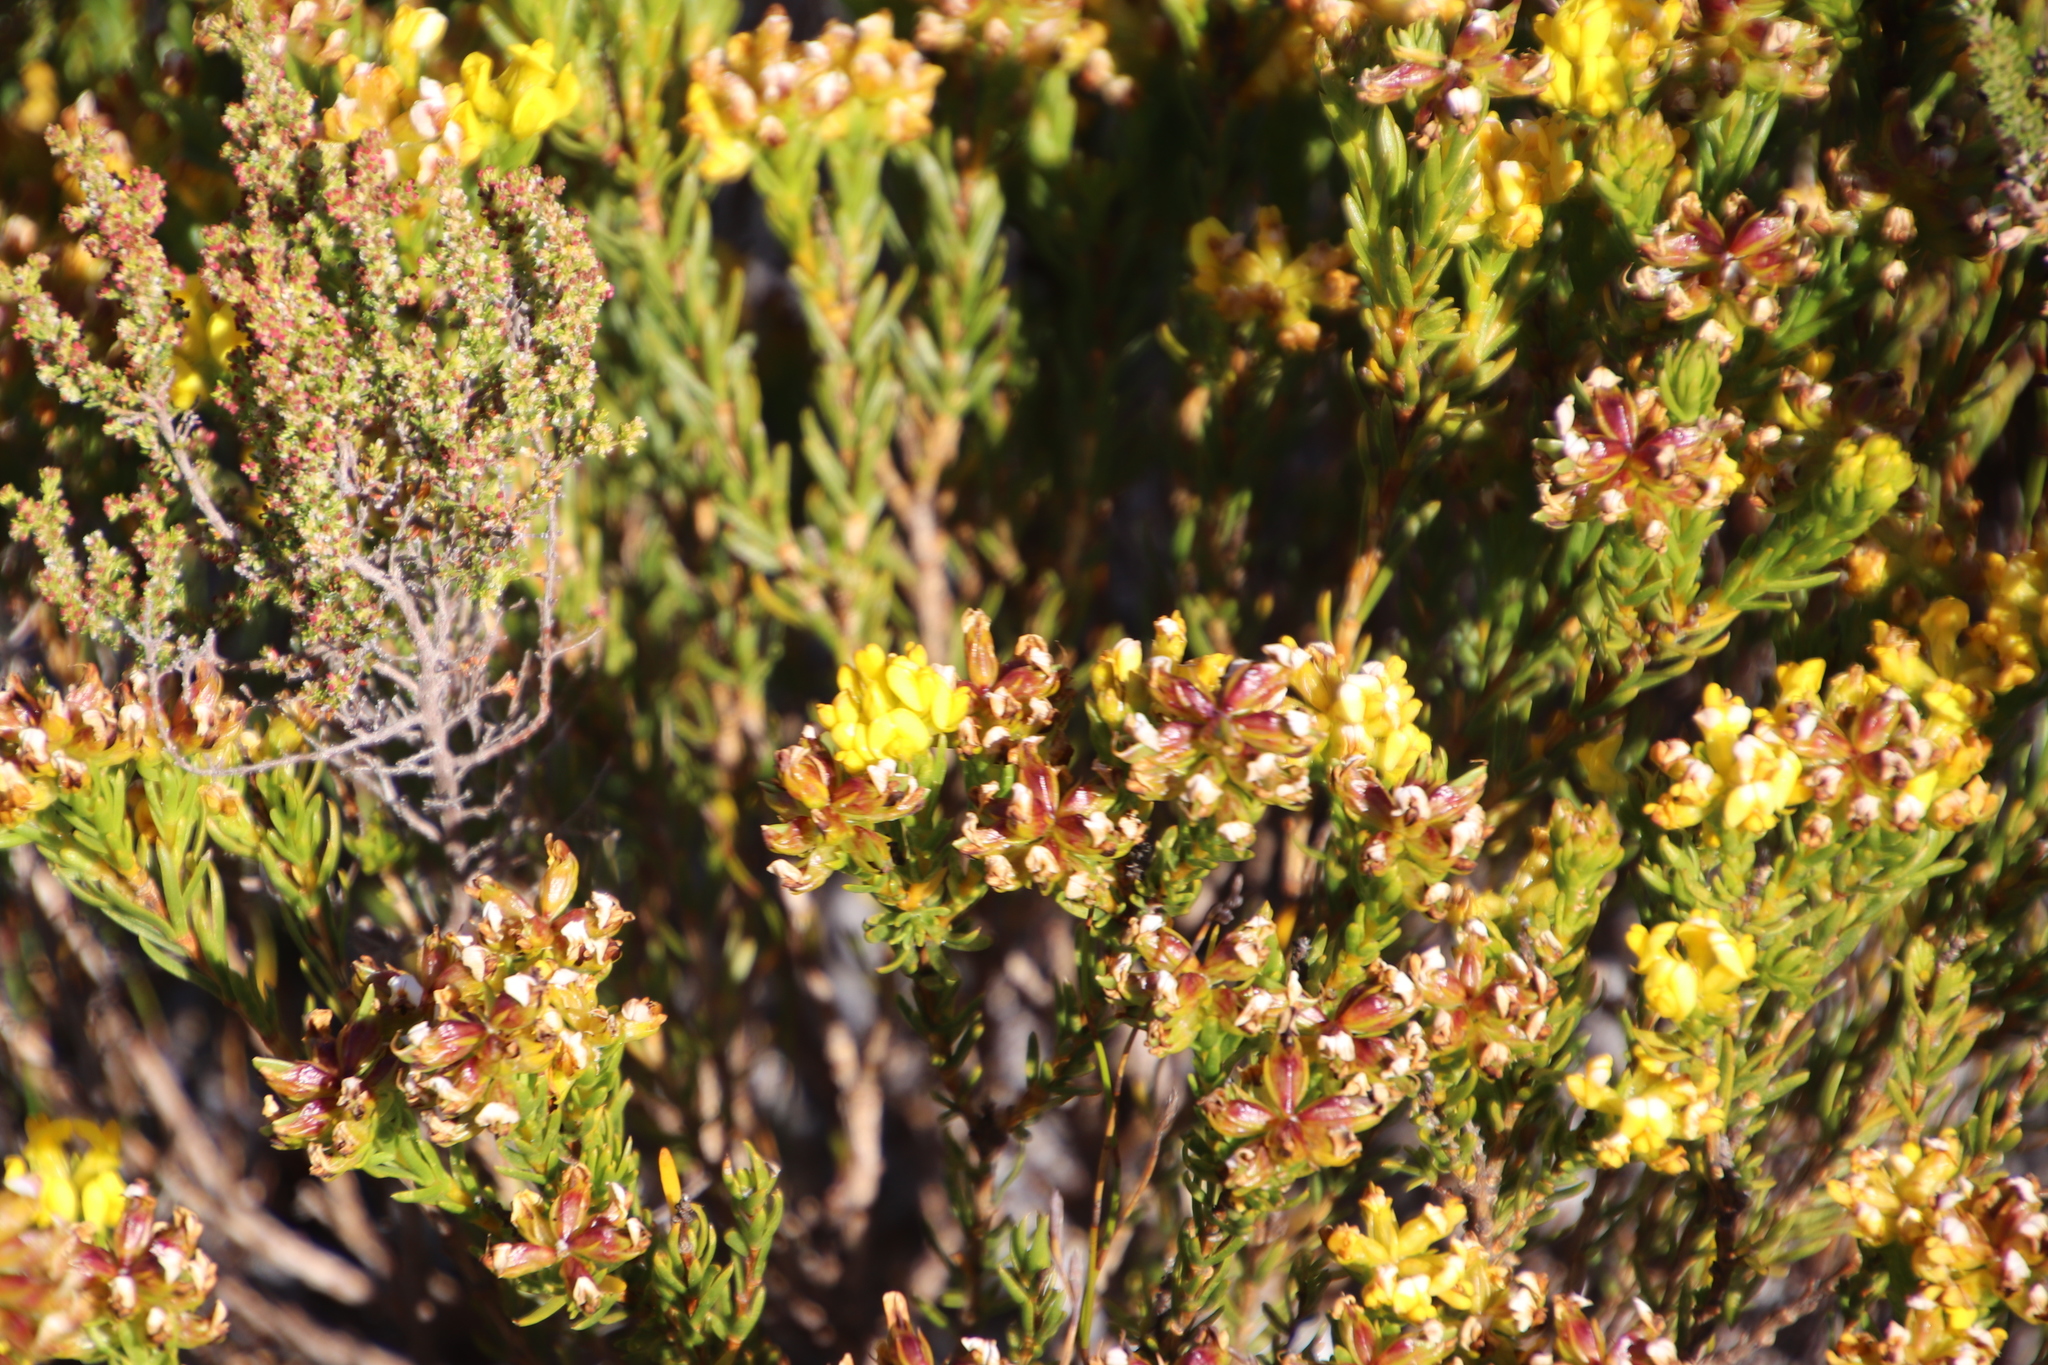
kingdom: Plantae
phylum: Tracheophyta
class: Magnoliopsida
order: Fabales
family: Fabaceae
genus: Aspalathus
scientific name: Aspalathus callosa
